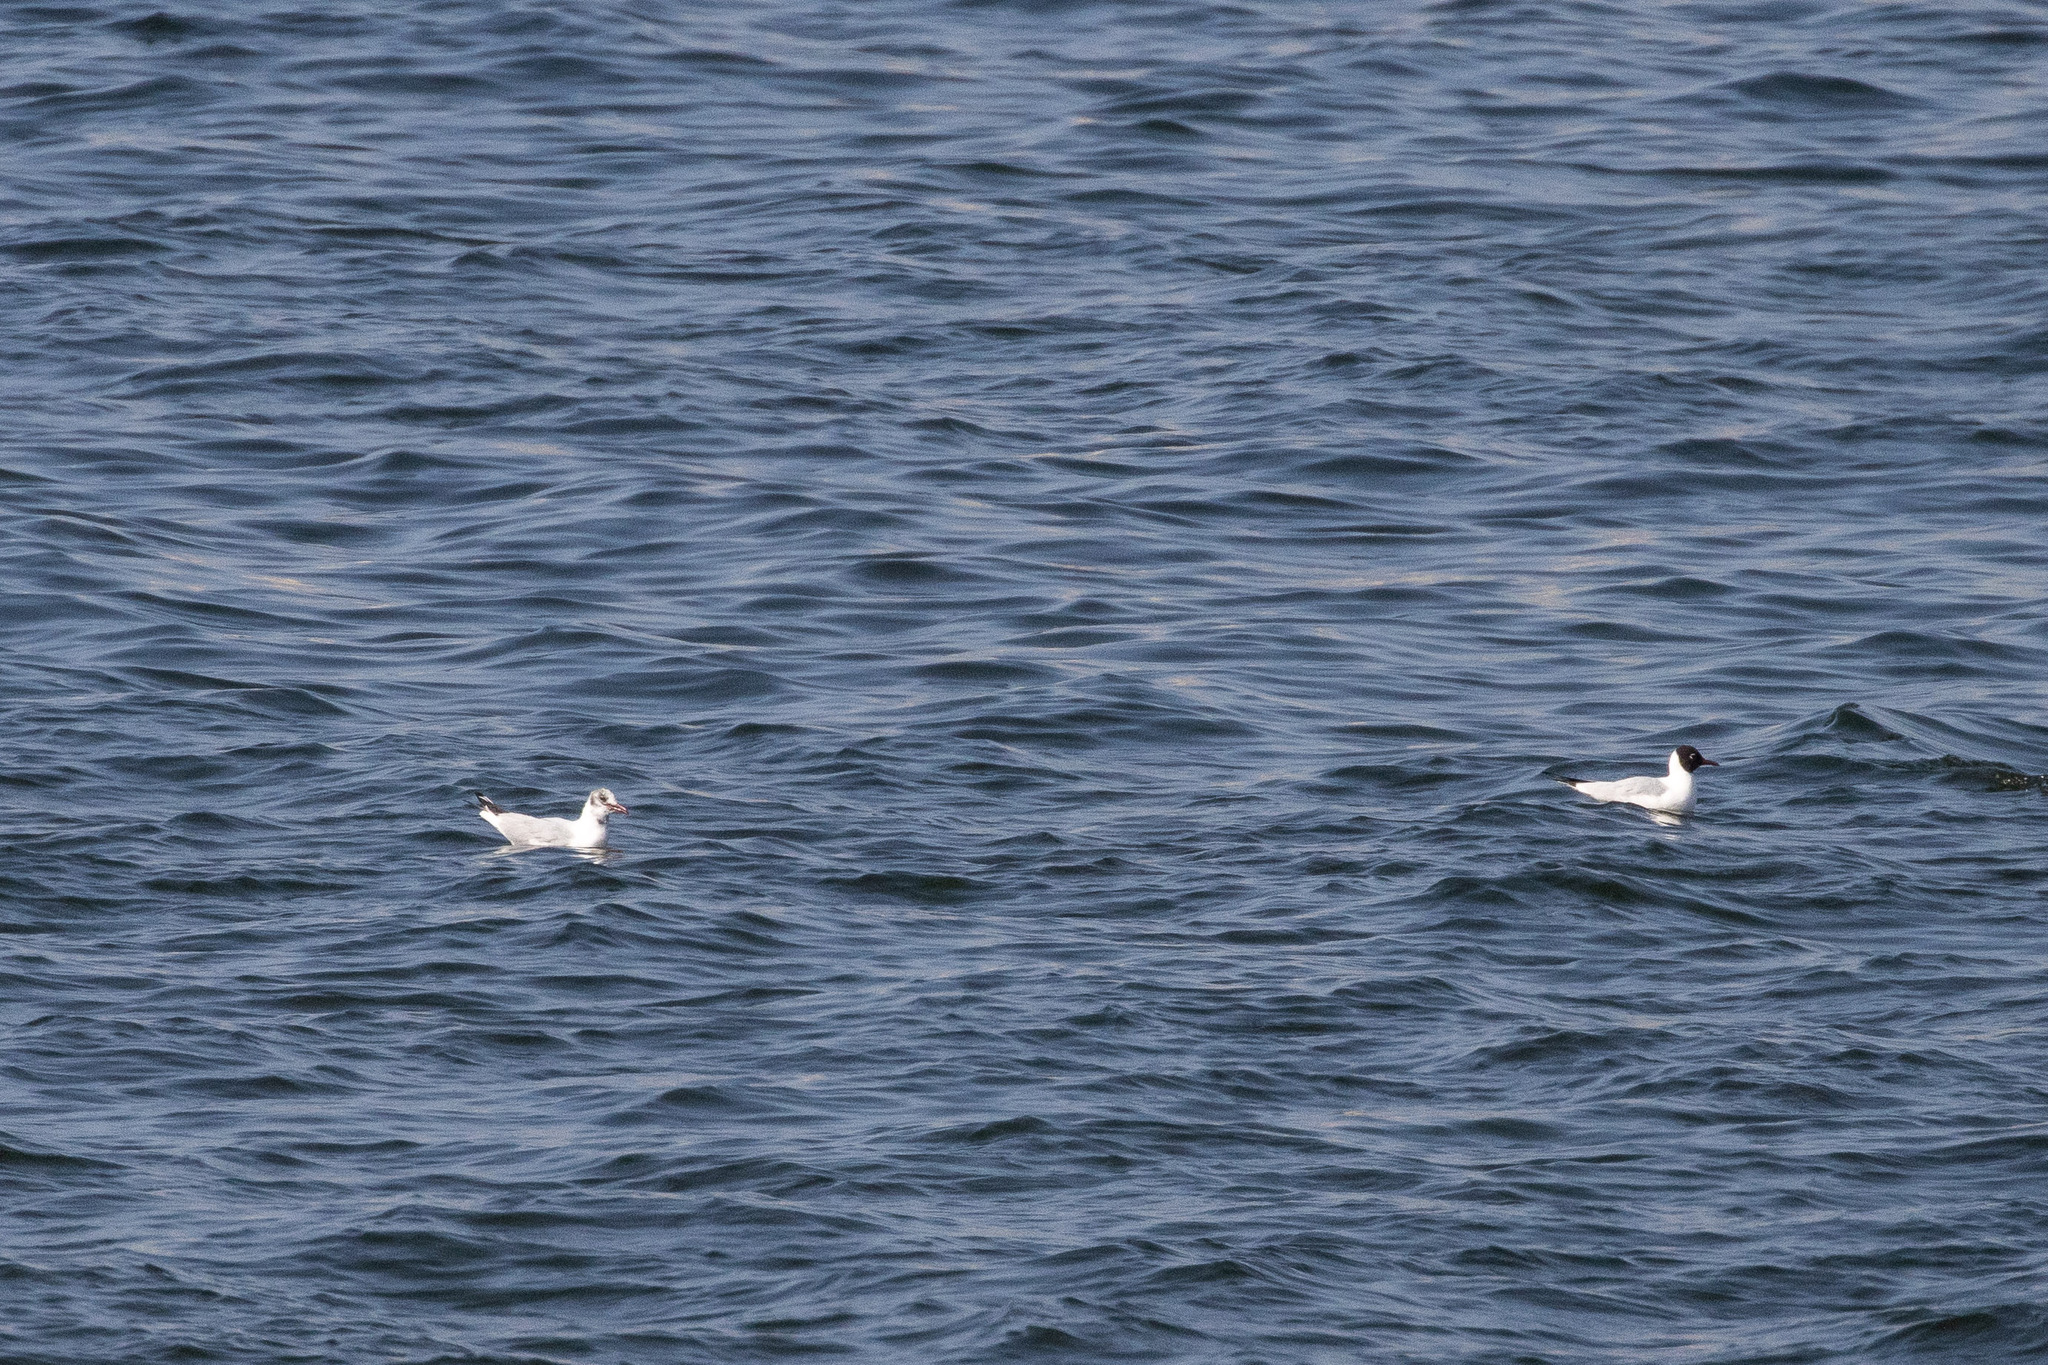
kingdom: Animalia
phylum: Chordata
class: Aves
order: Charadriiformes
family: Laridae
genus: Chroicocephalus
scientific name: Chroicocephalus ridibundus
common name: Black-headed gull
